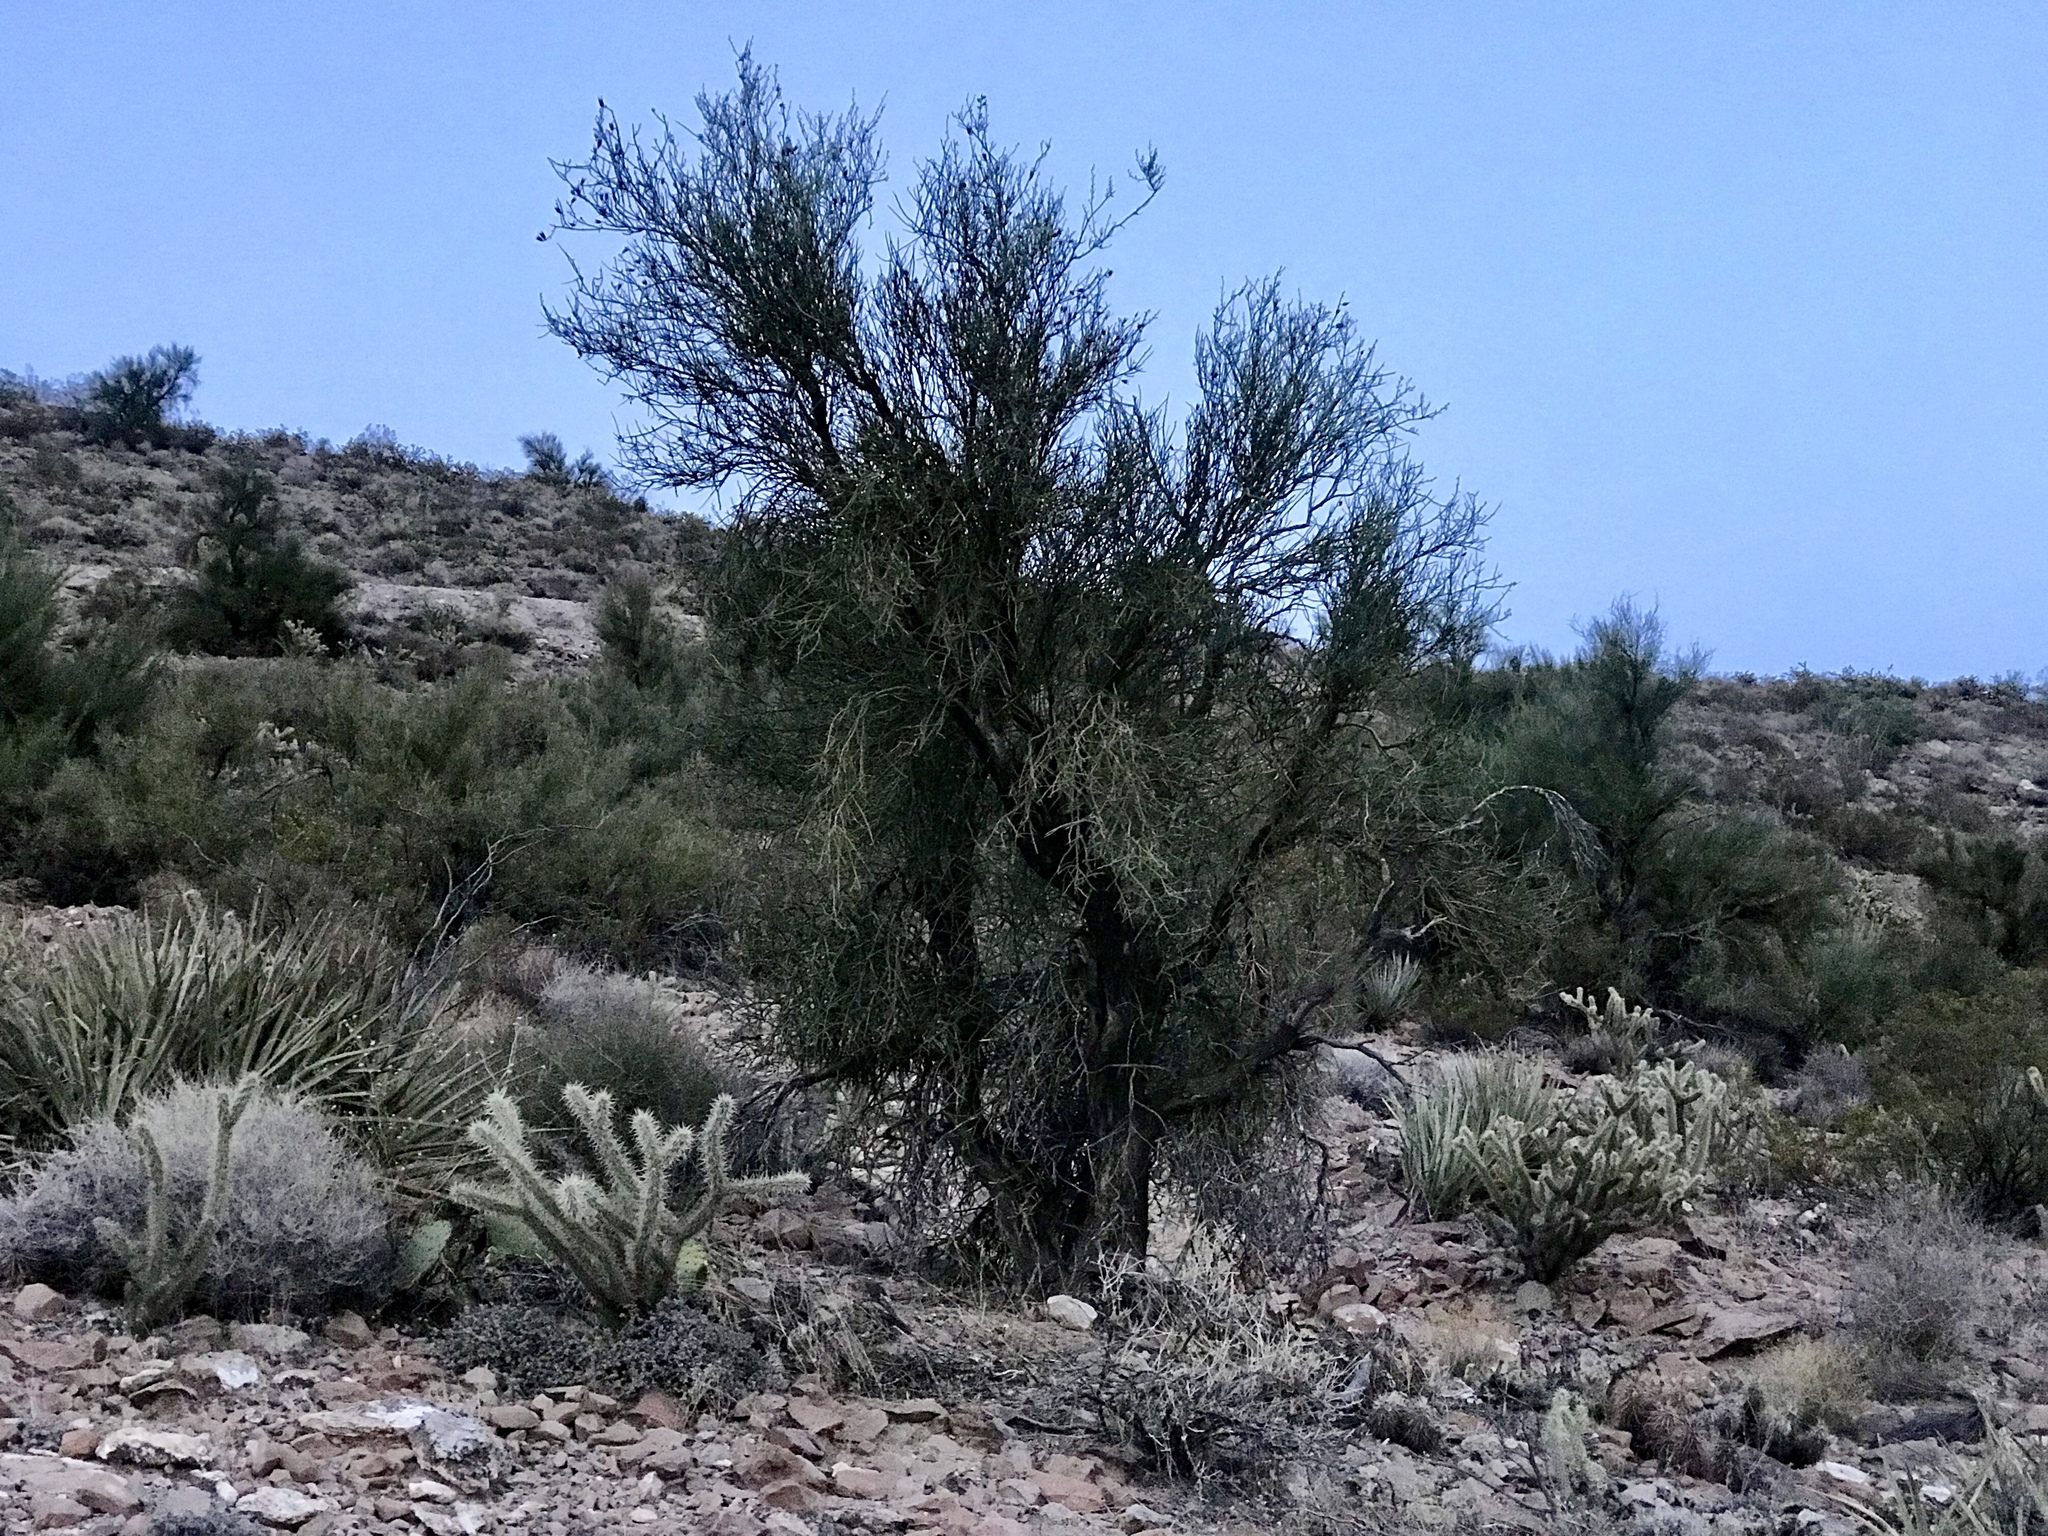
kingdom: Plantae
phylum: Tracheophyta
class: Magnoliopsida
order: Celastrales
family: Celastraceae
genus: Canotia
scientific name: Canotia holacantha
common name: Crucifixion thorns
